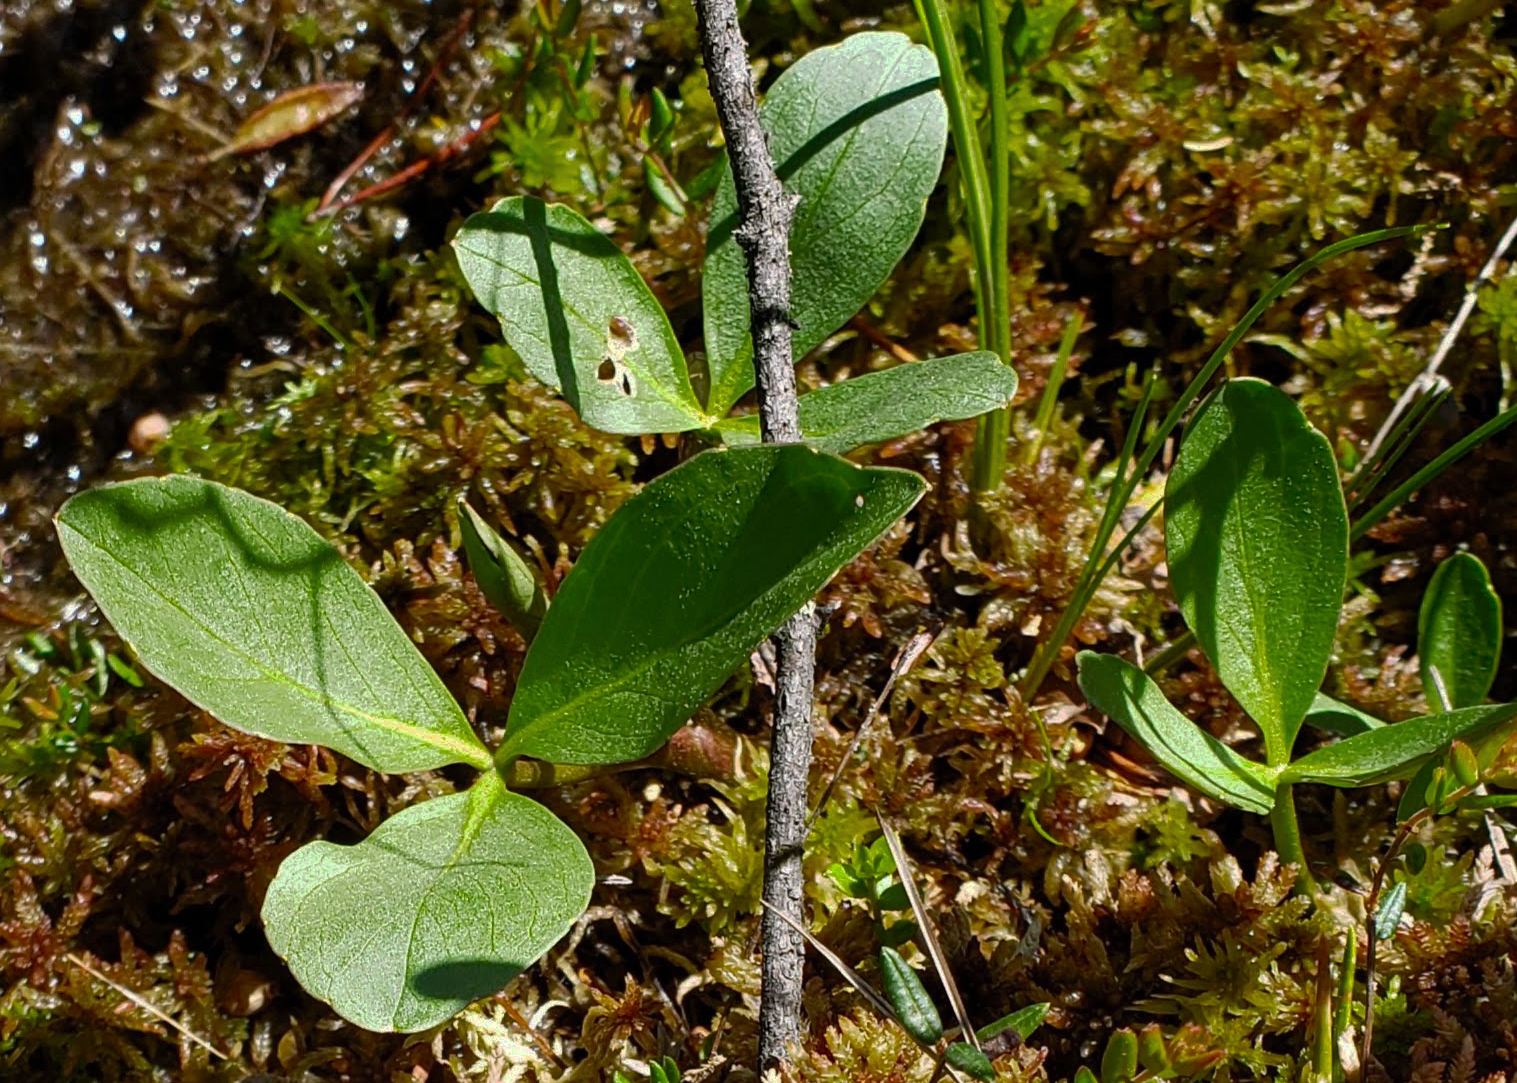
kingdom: Plantae
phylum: Tracheophyta
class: Magnoliopsida
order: Asterales
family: Menyanthaceae
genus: Menyanthes
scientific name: Menyanthes trifoliata
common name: Bogbean
